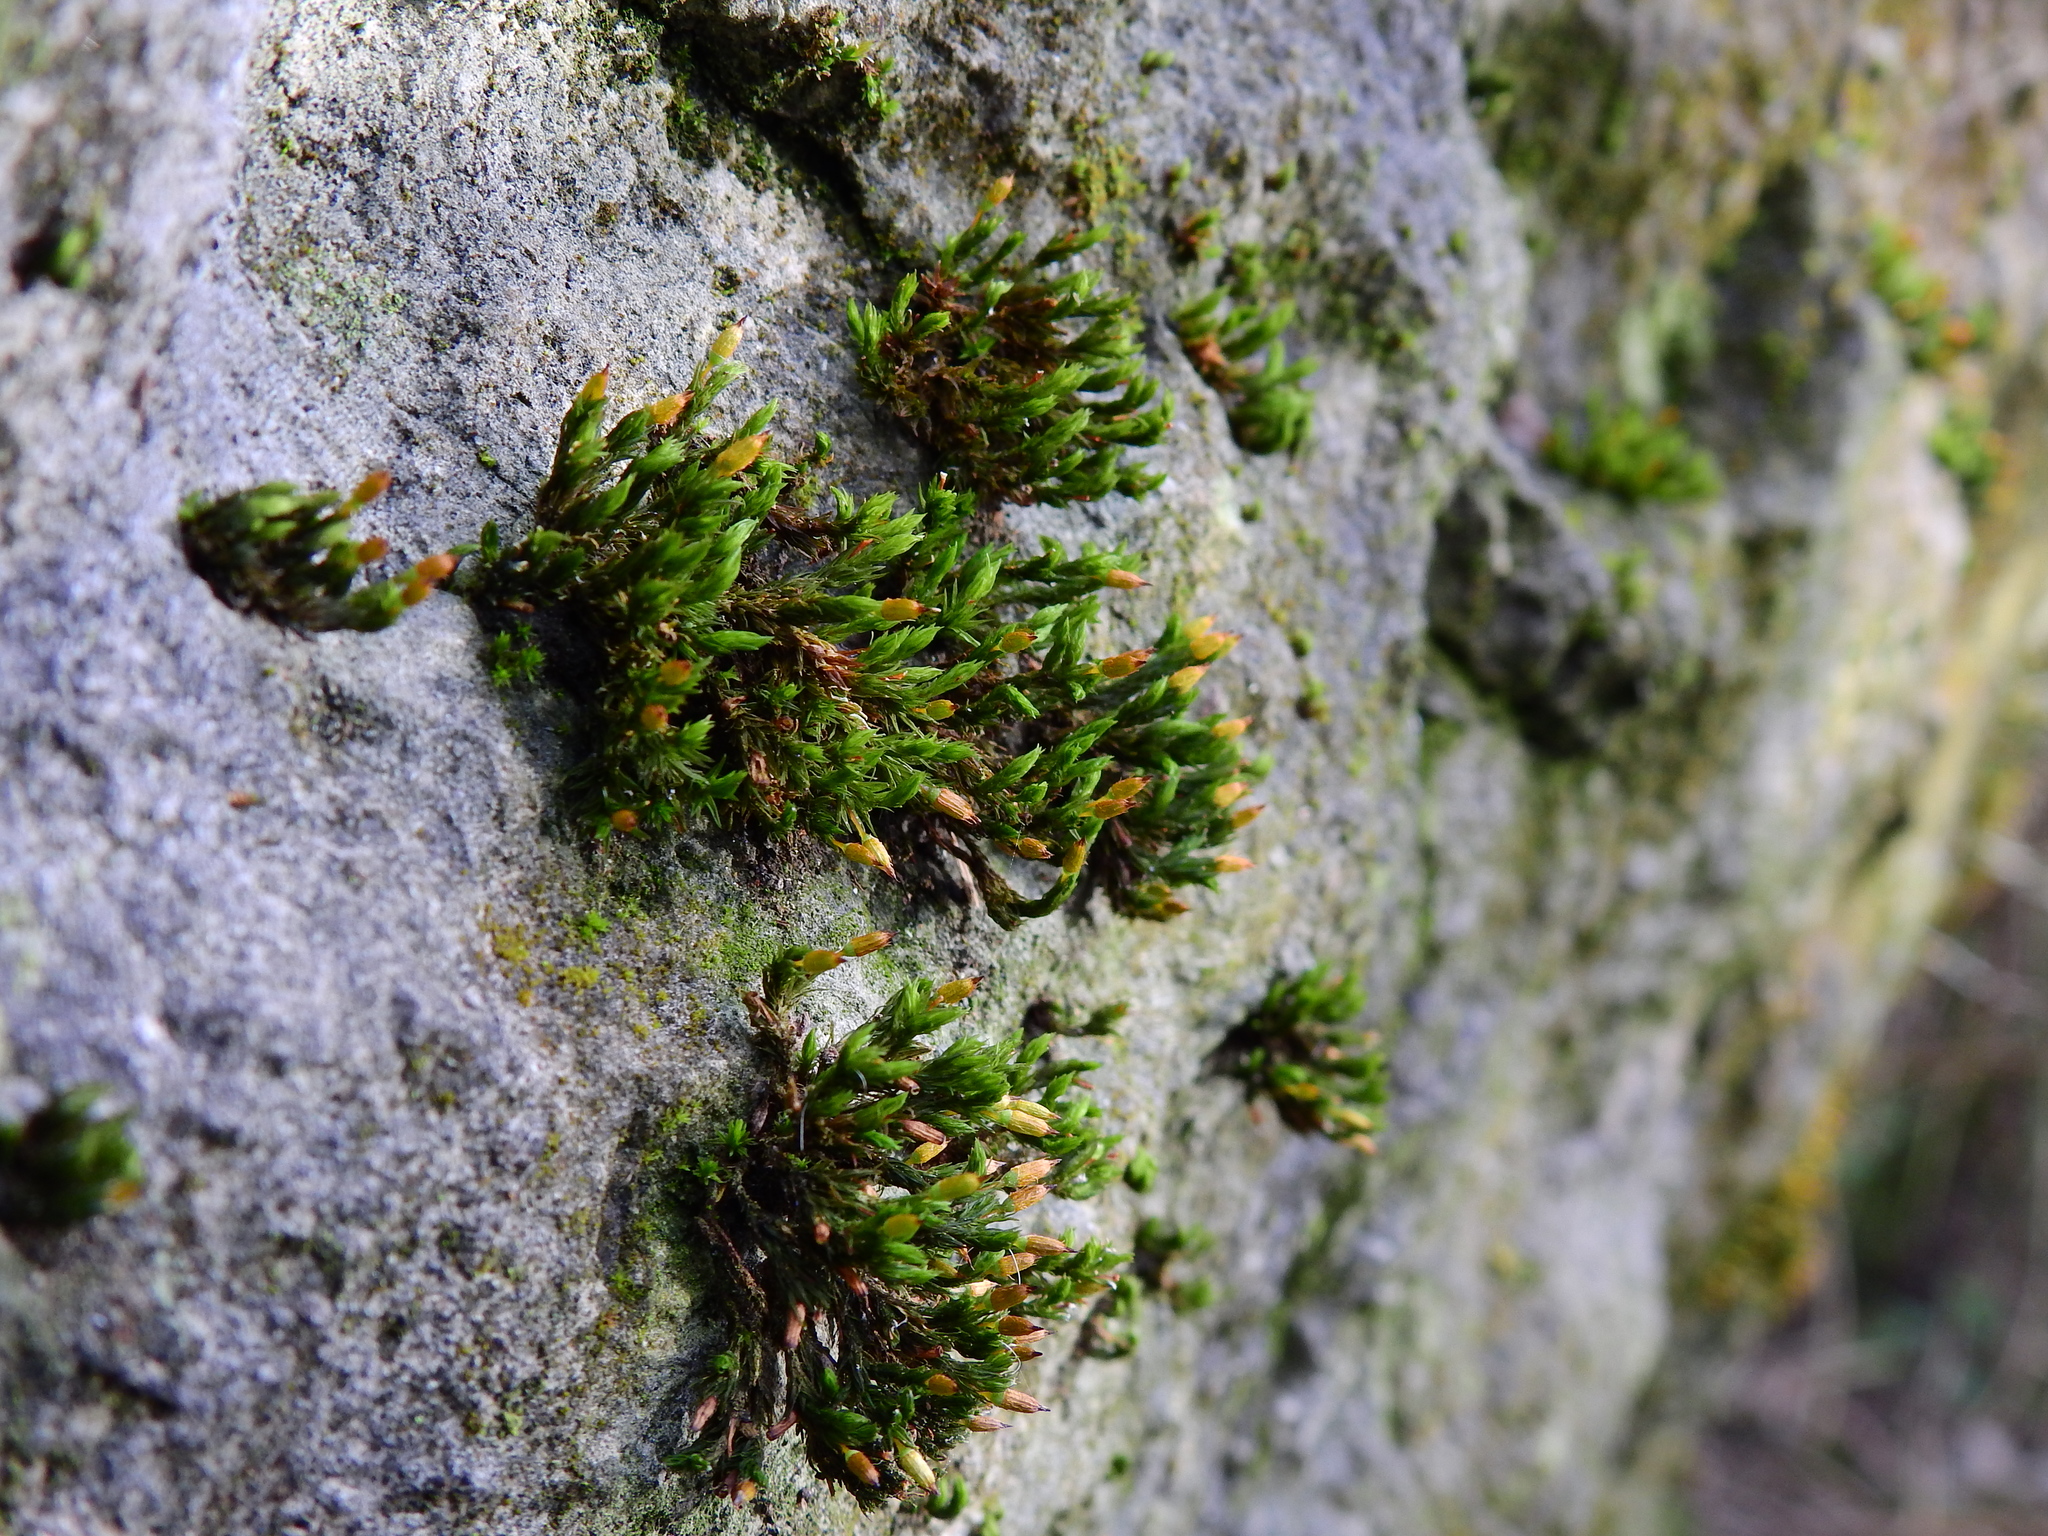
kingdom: Plantae
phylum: Bryophyta
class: Bryopsida
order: Orthotrichales
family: Orthotrichaceae
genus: Orthotrichum
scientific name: Orthotrichum anomalum
